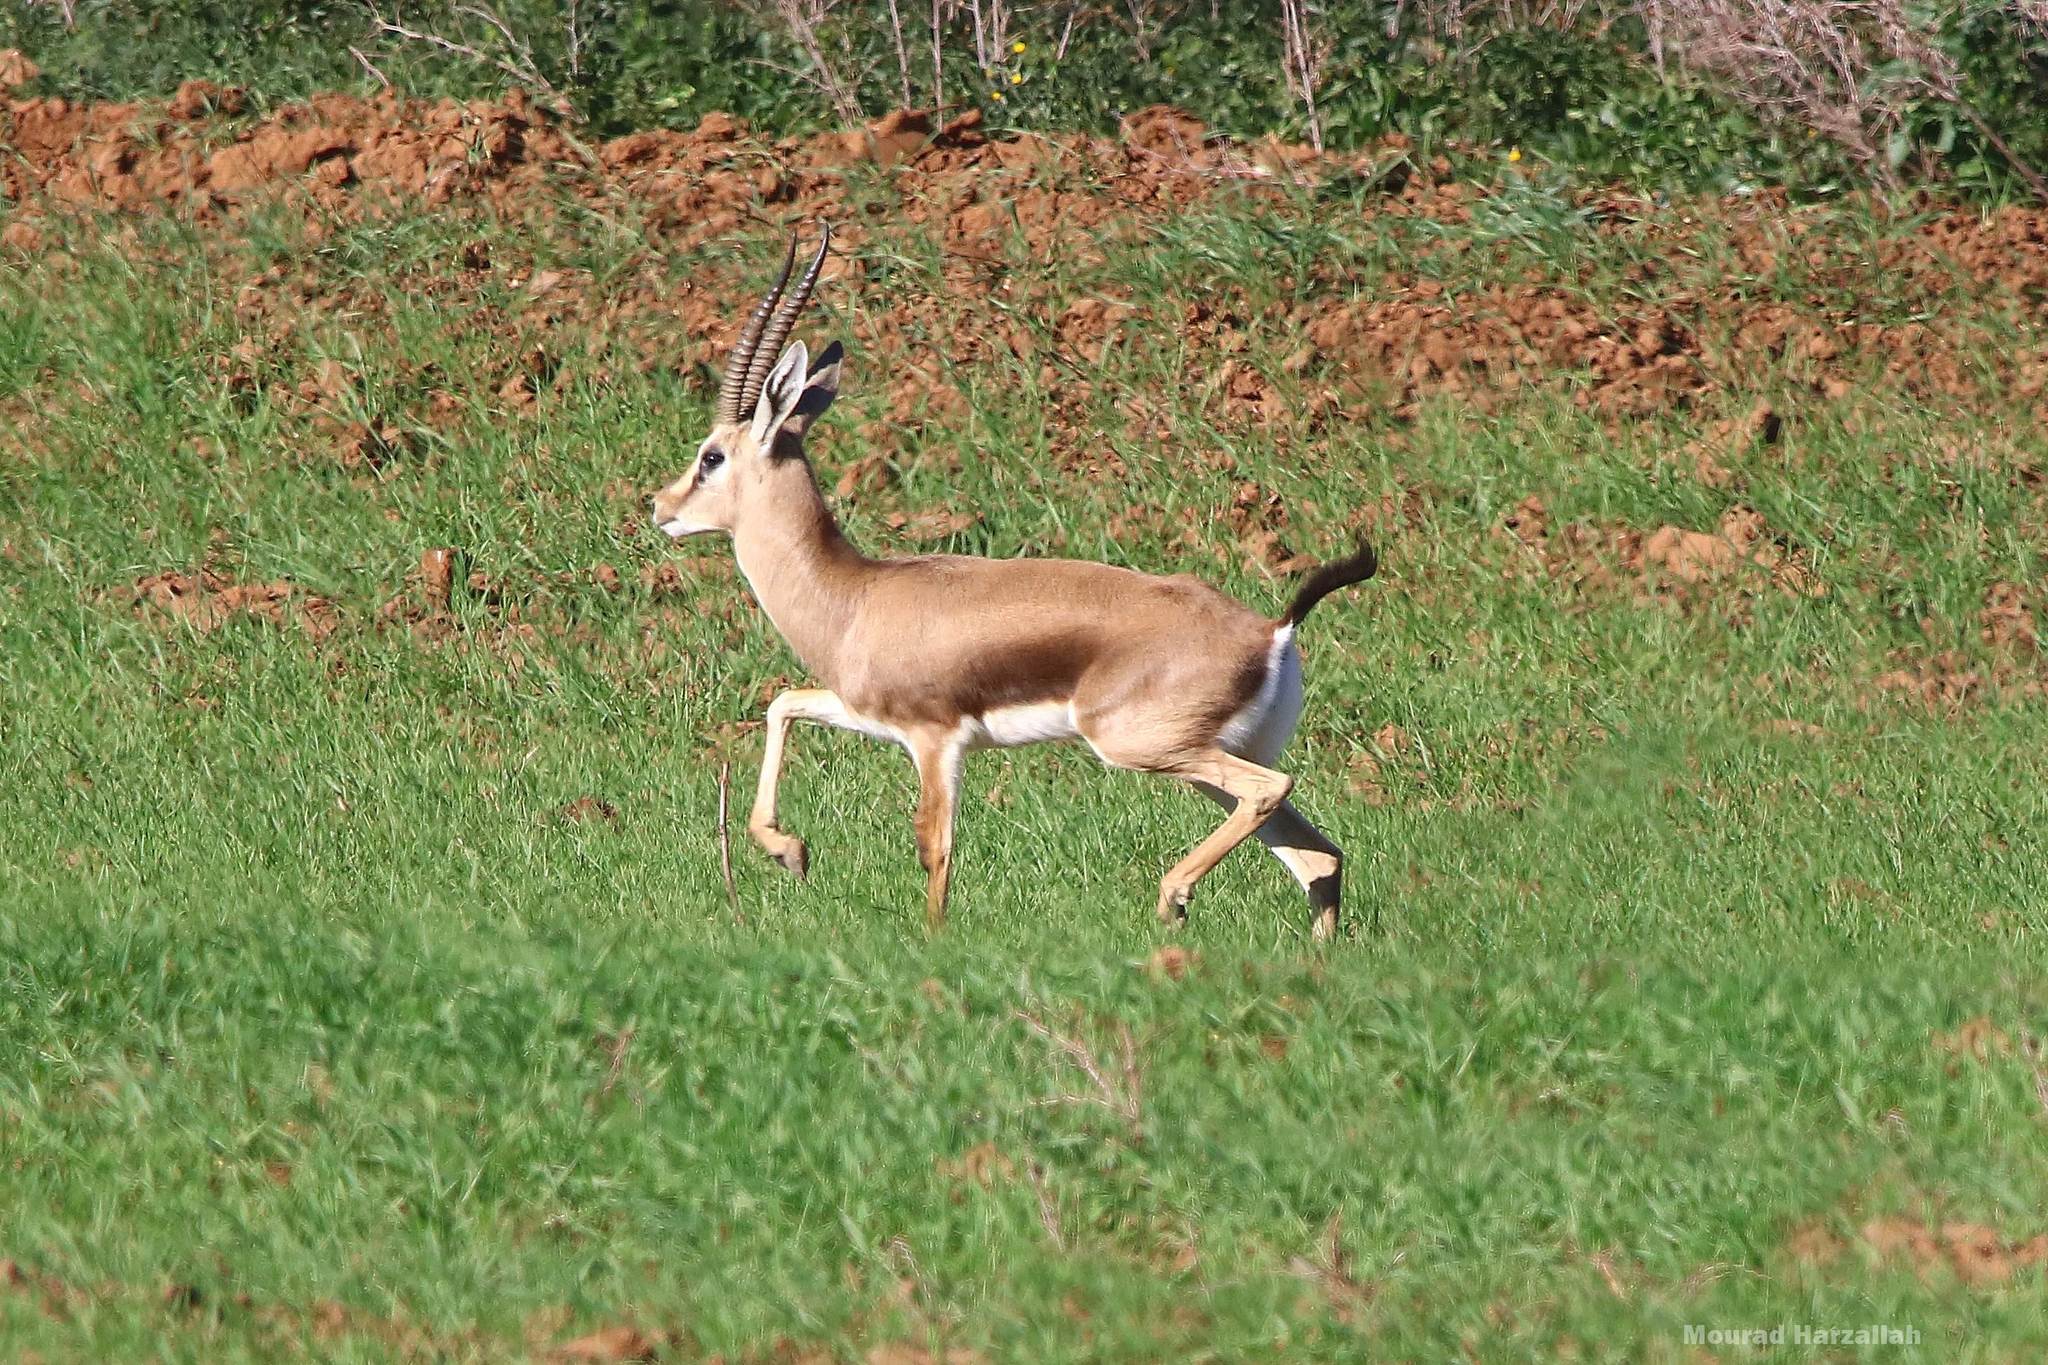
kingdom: Animalia
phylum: Chordata
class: Mammalia
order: Artiodactyla
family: Bovidae
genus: Gazella
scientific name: Gazella cuvieri
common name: Cuvier's gazelle
